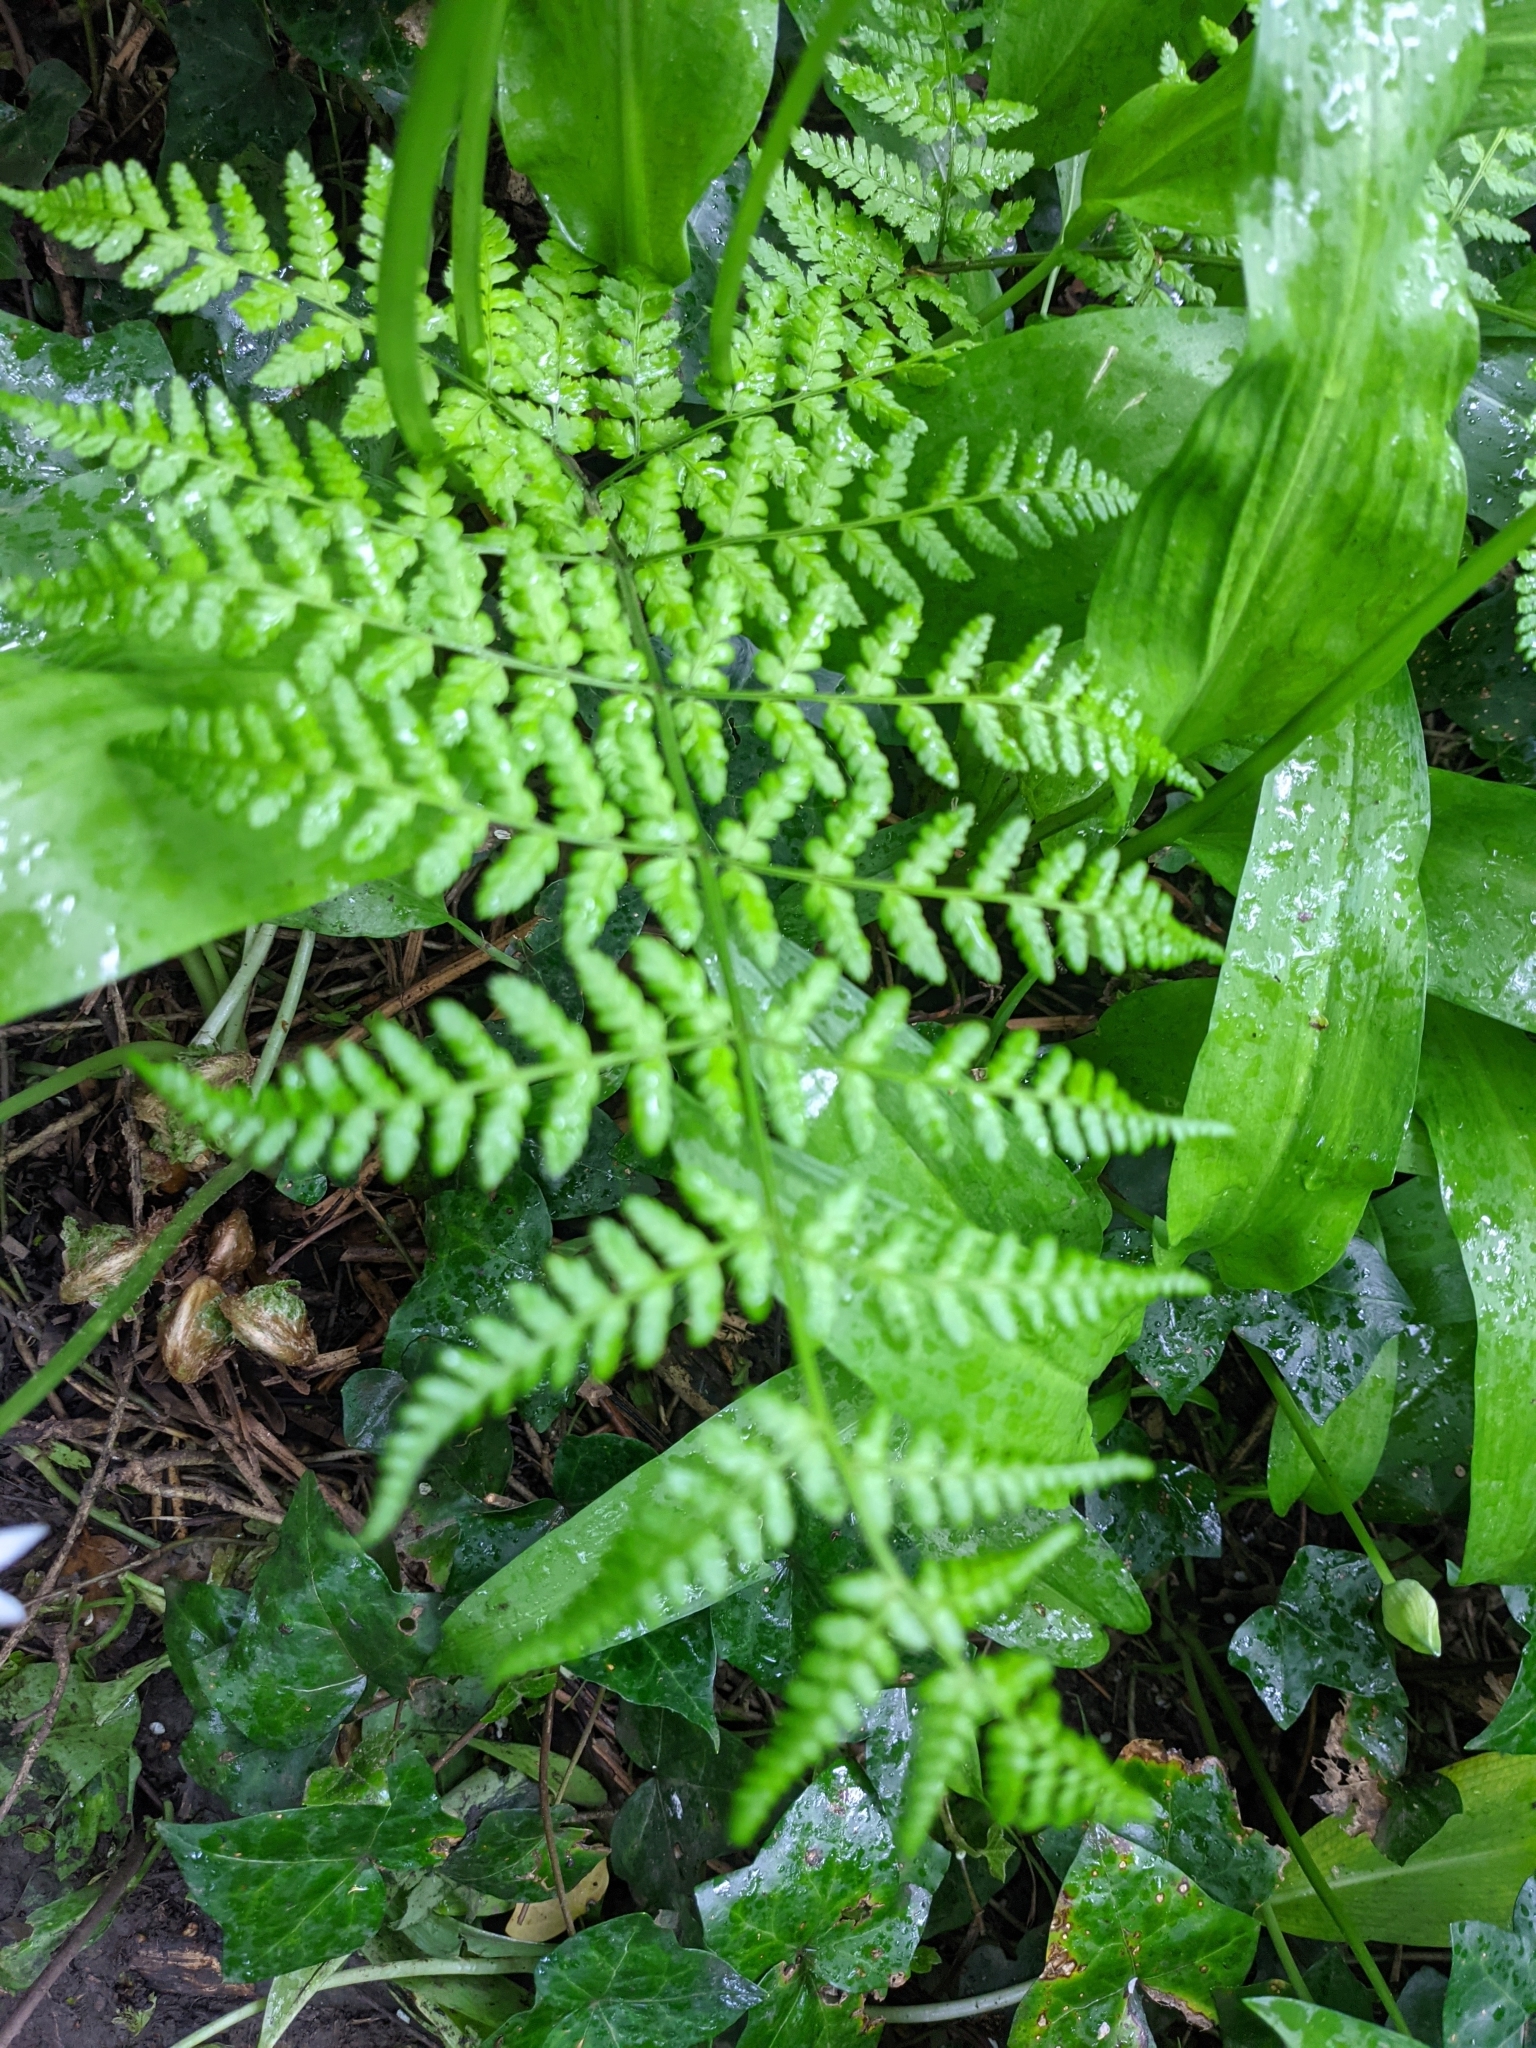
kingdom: Plantae
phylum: Tracheophyta
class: Polypodiopsida
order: Polypodiales
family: Dryopteridaceae
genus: Dryopteris
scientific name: Dryopteris dilatata
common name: Broad buckler-fern
